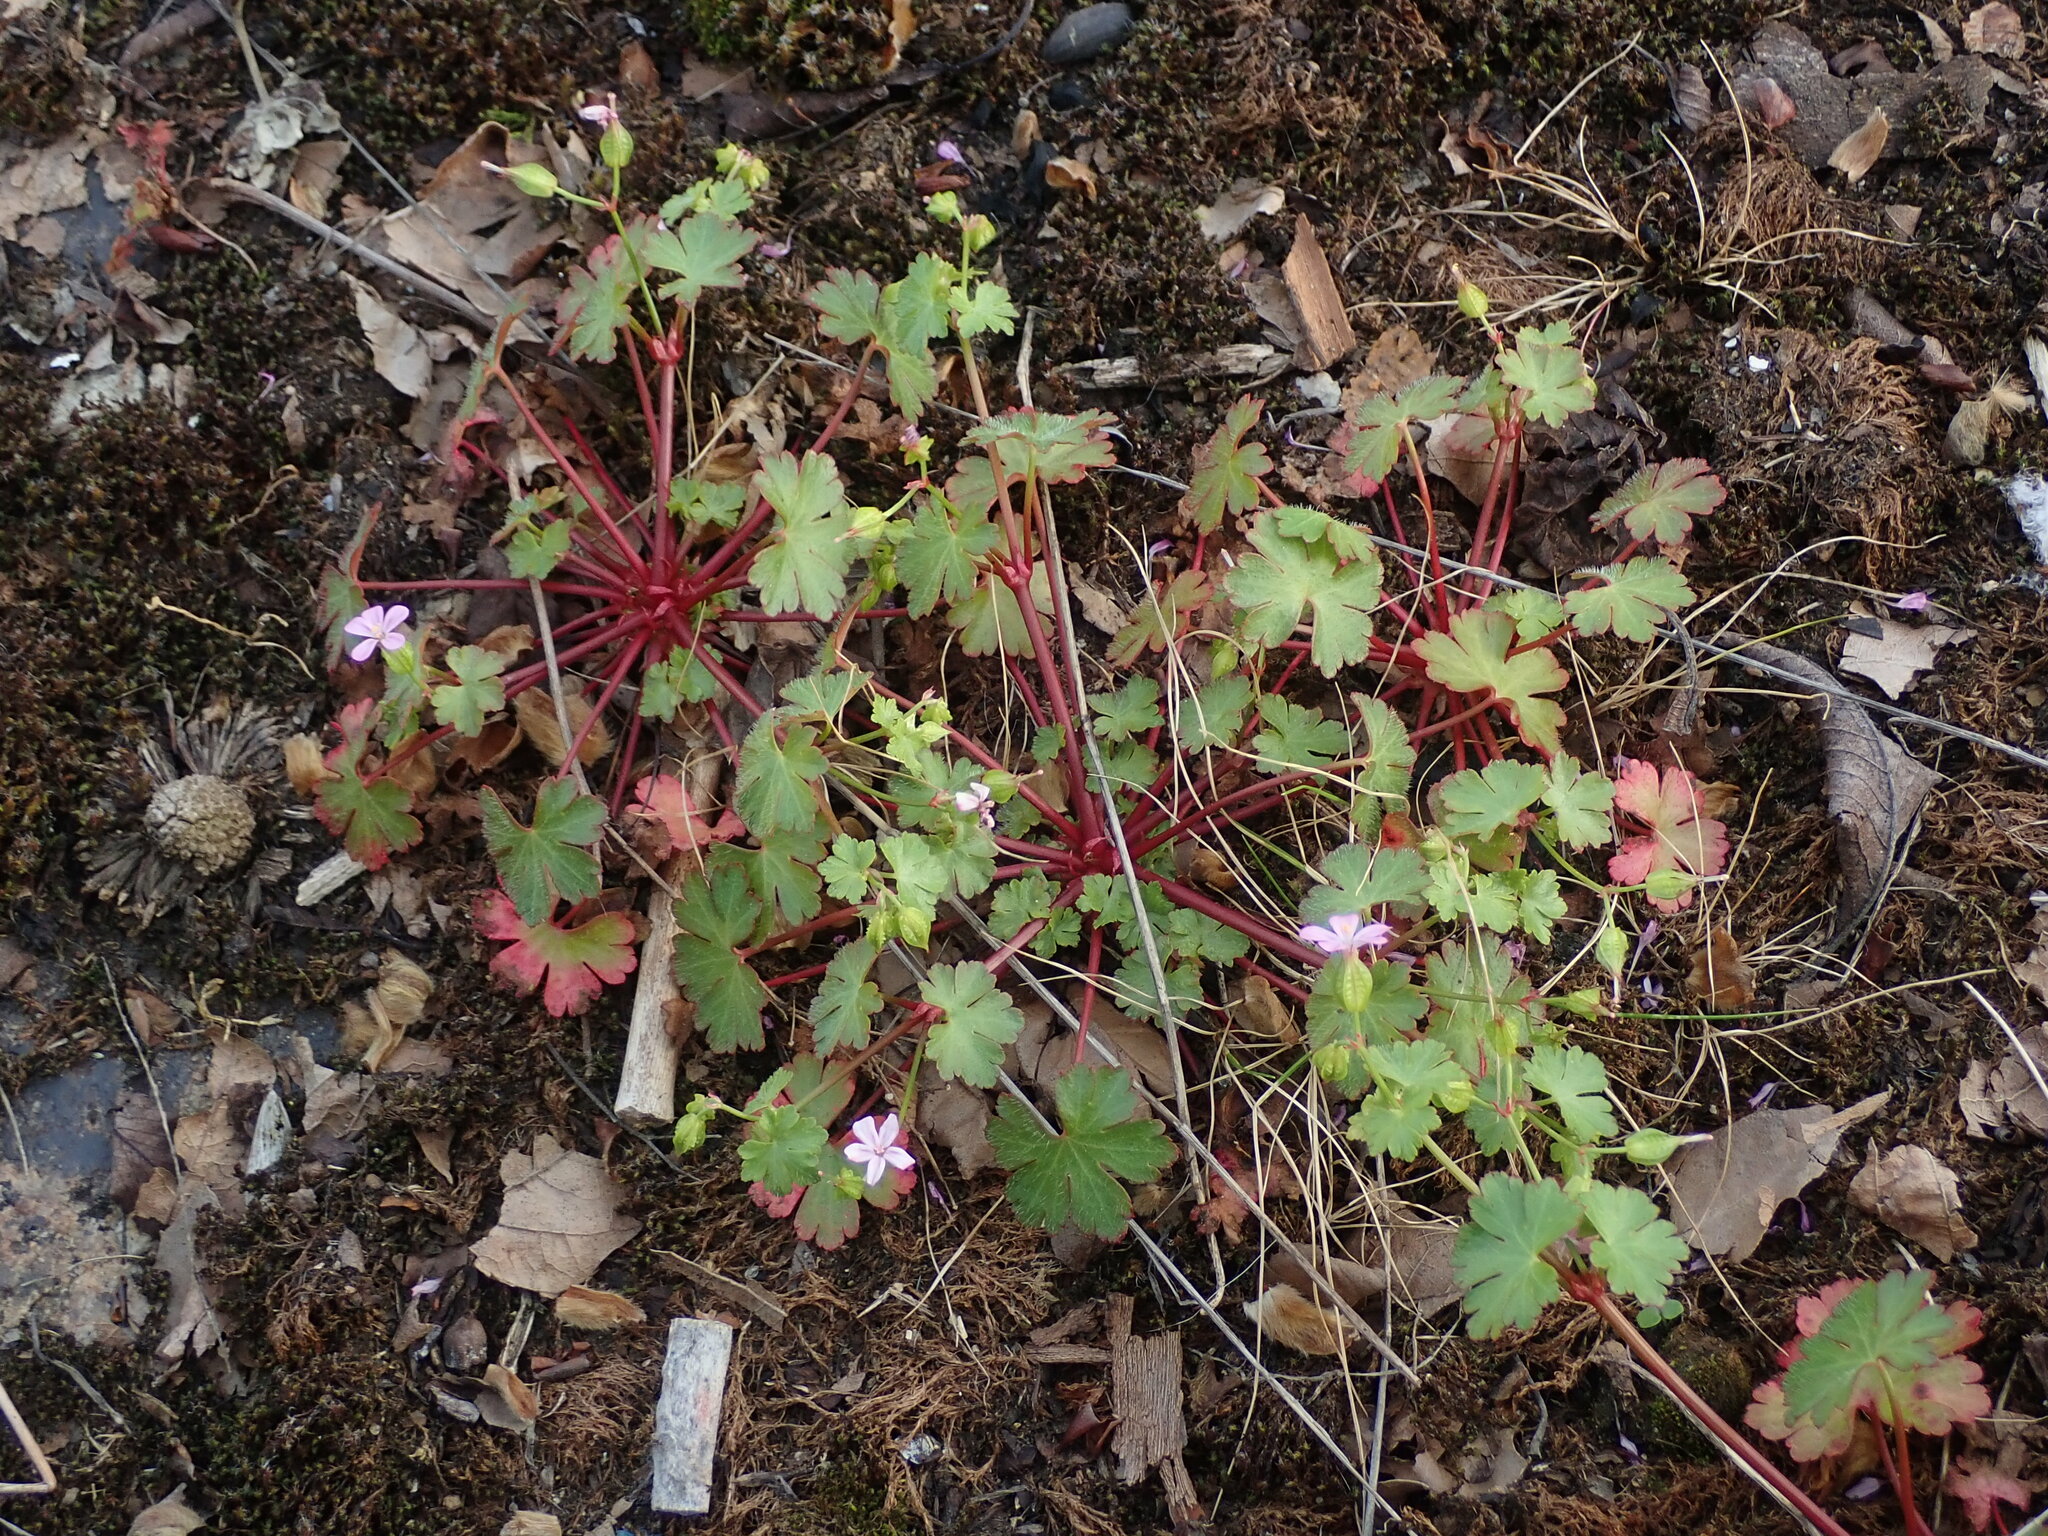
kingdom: Plantae
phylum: Tracheophyta
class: Magnoliopsida
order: Geraniales
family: Geraniaceae
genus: Geranium
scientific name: Geranium lucidum
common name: Shining crane's-bill
